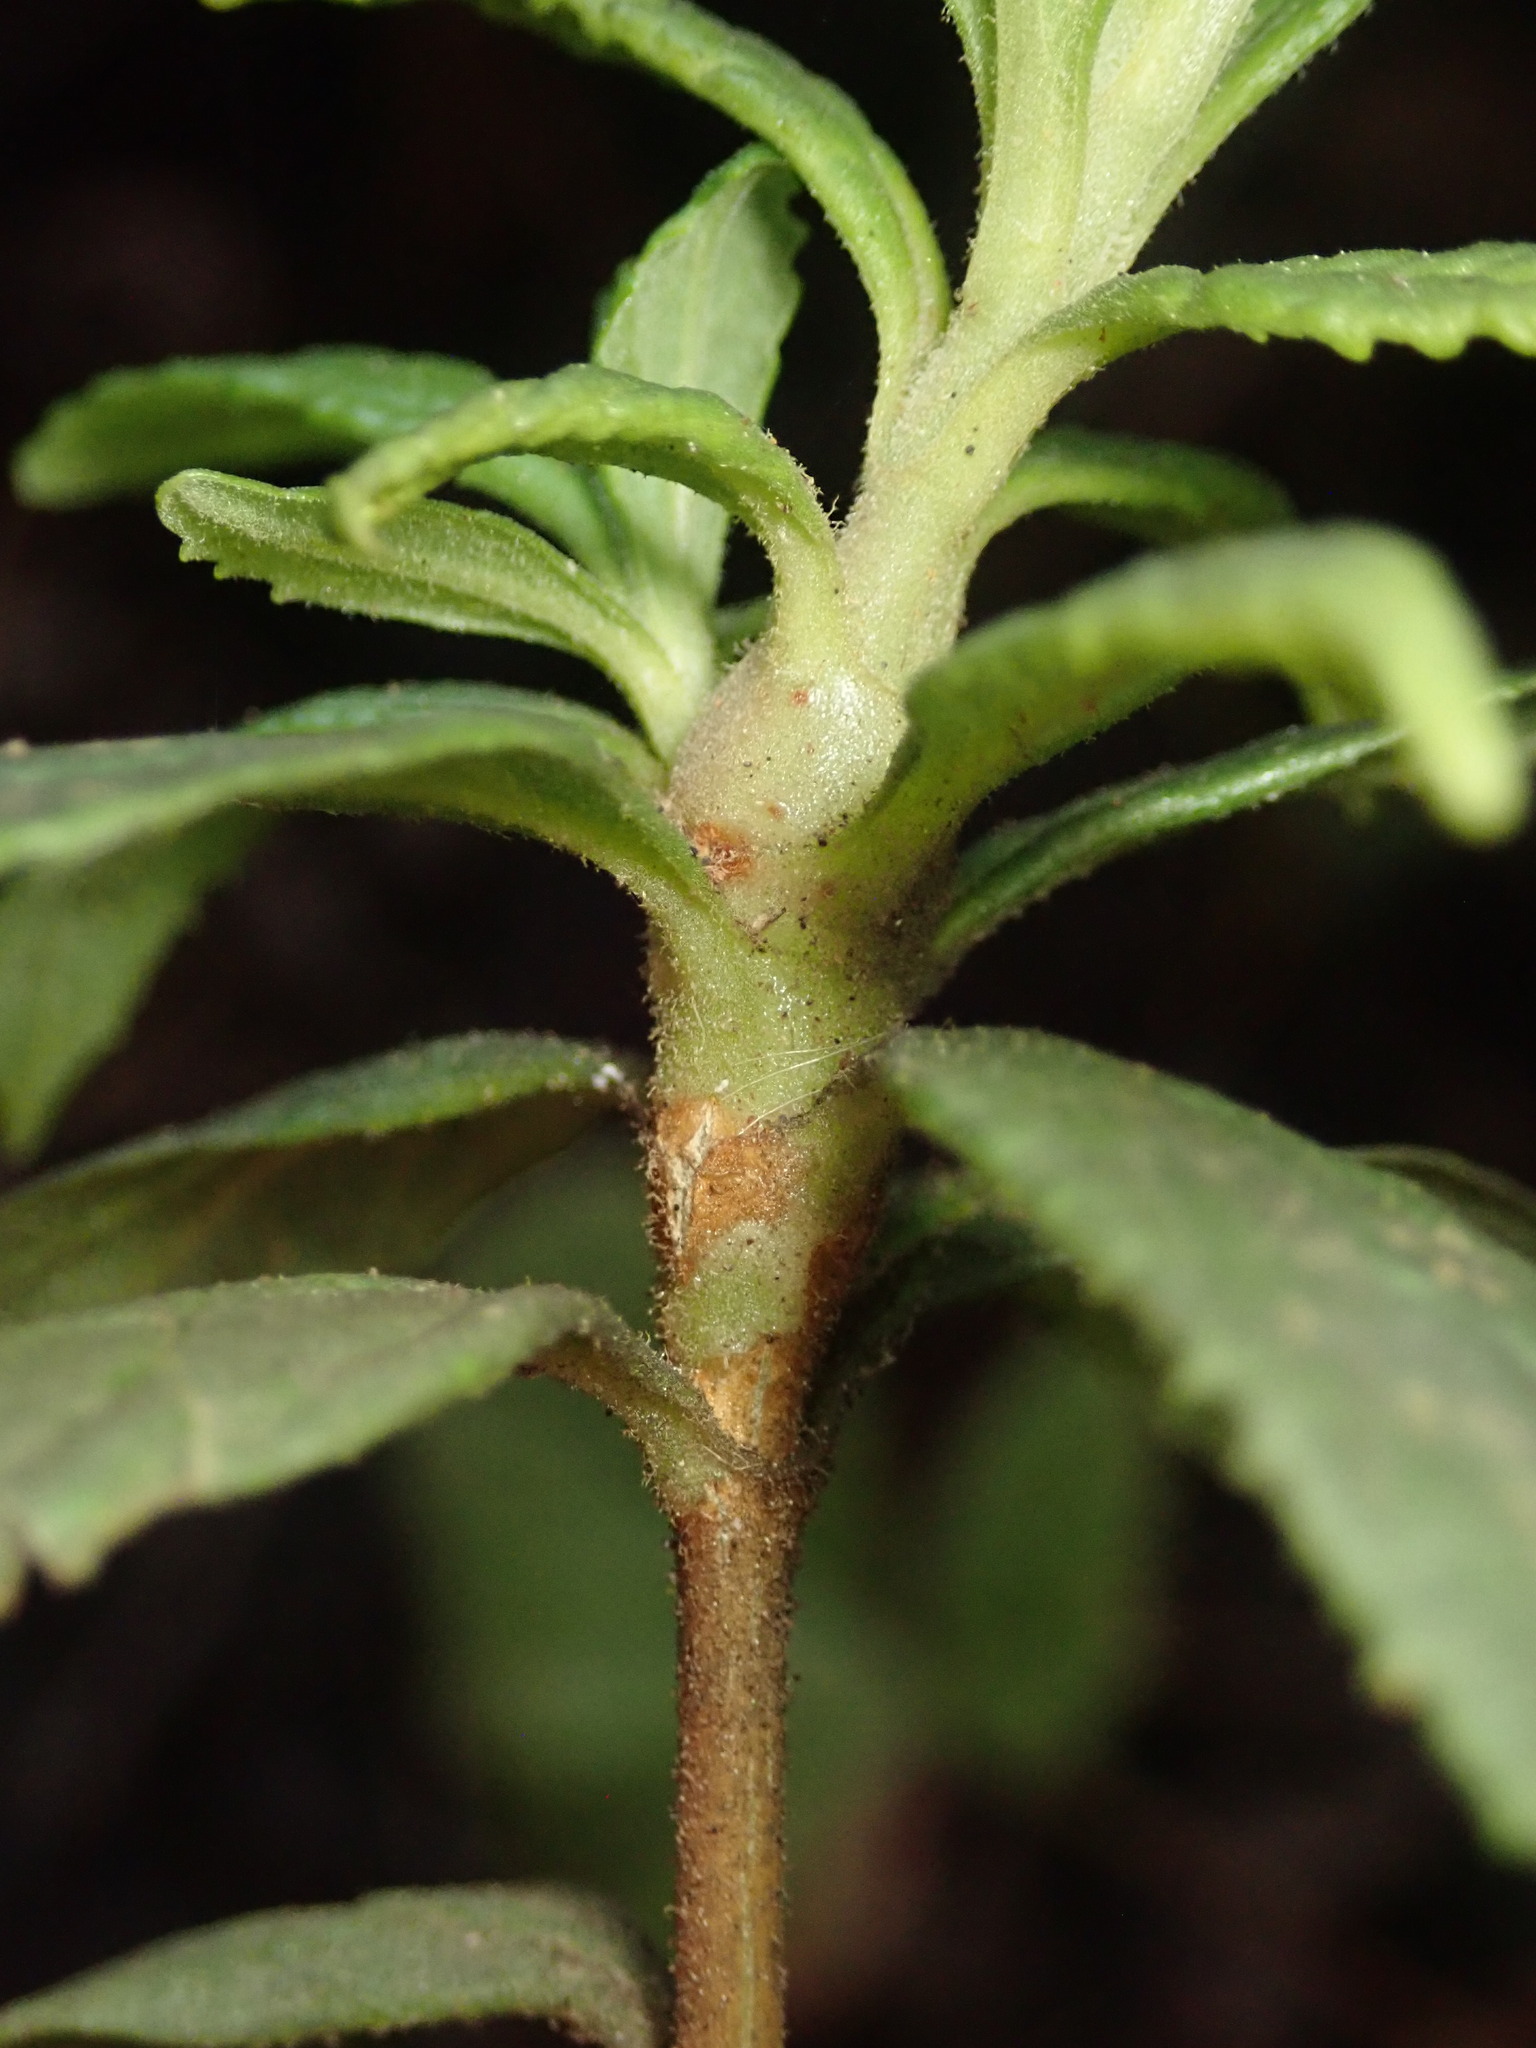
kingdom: Animalia
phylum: Arthropoda
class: Insecta
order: Diptera
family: Cecidomyiidae
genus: Neolasioptera
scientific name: Neolasioptera mimuli
